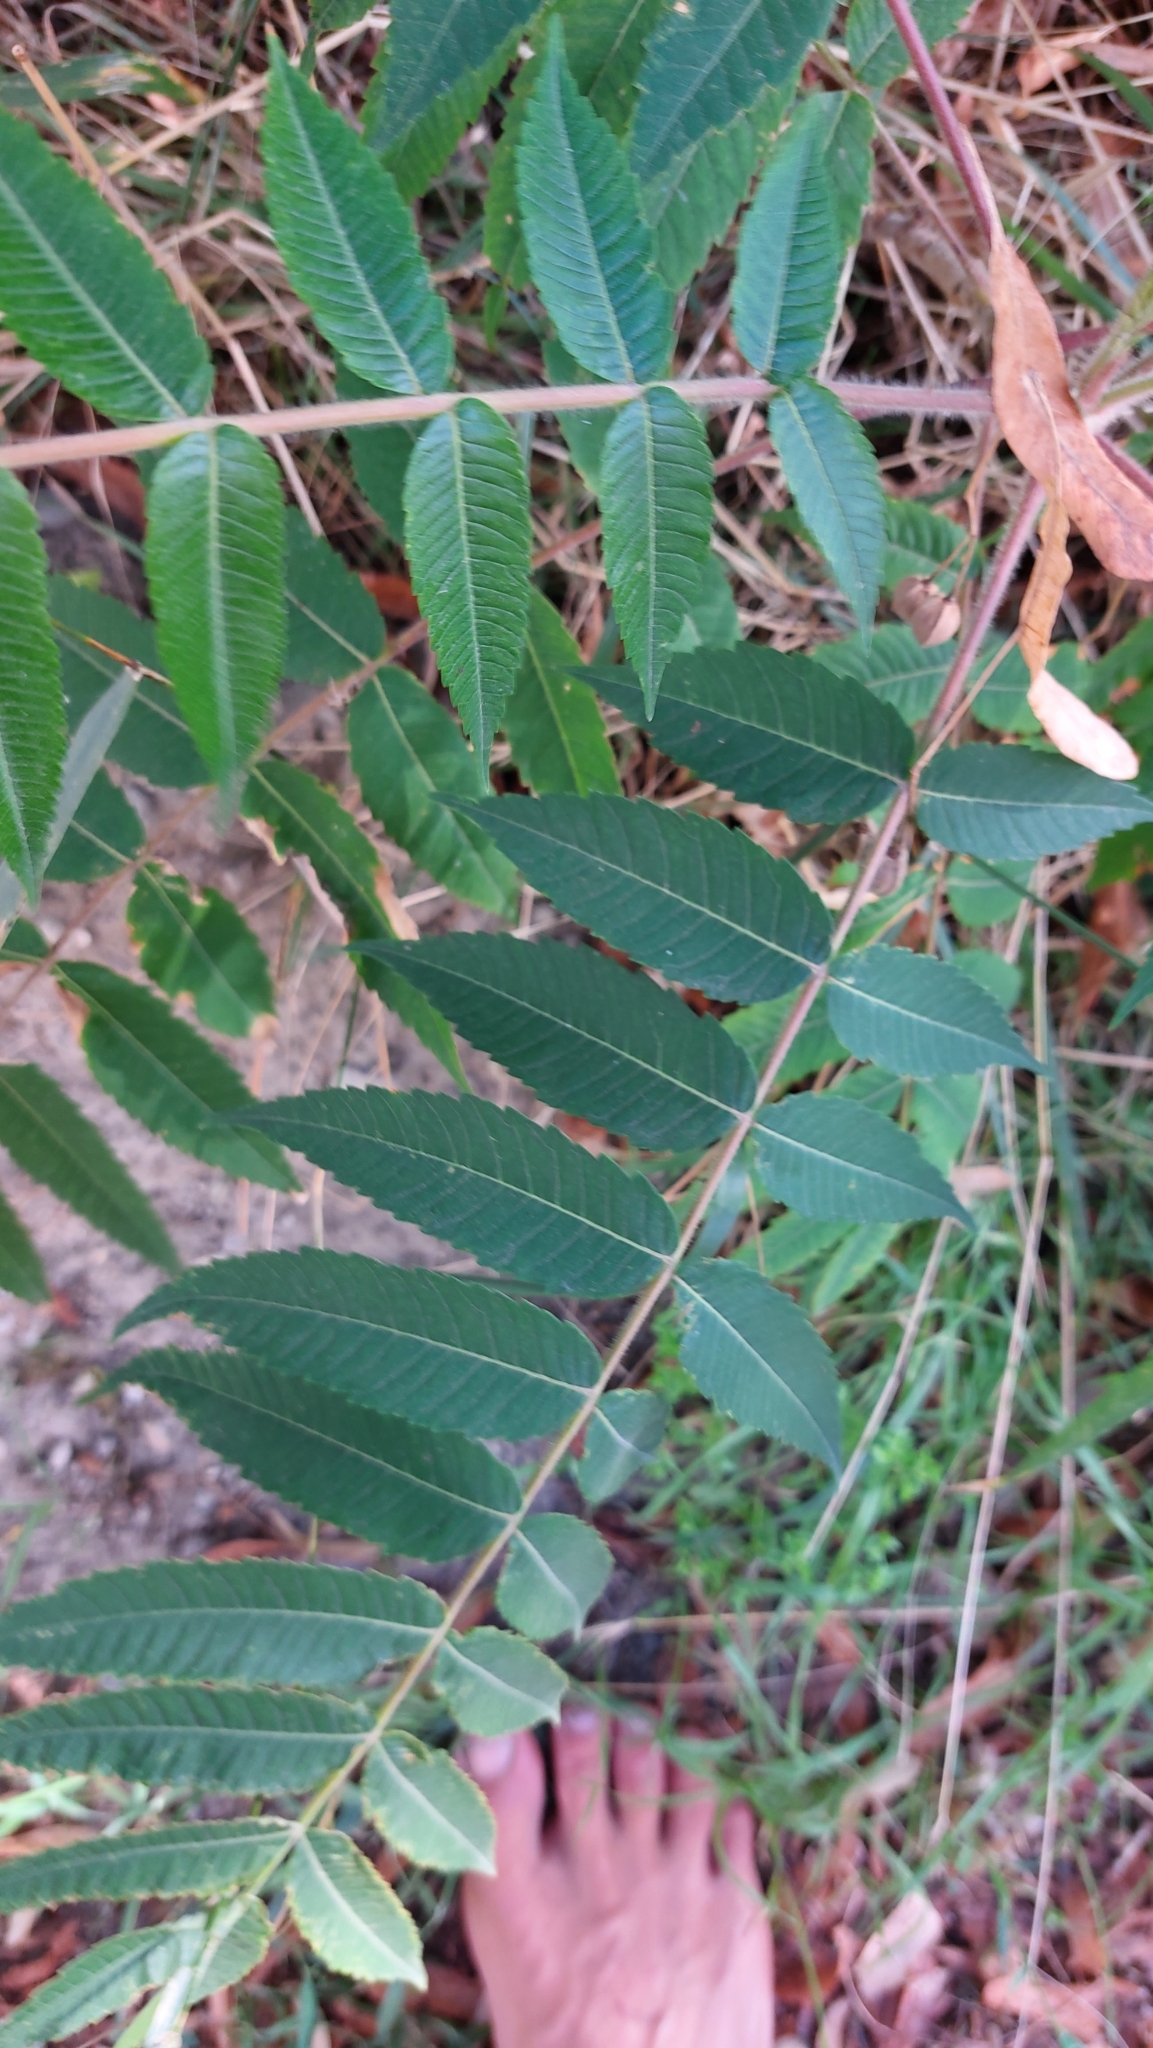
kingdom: Plantae
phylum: Tracheophyta
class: Magnoliopsida
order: Sapindales
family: Anacardiaceae
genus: Rhus
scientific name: Rhus typhina
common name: Staghorn sumac
